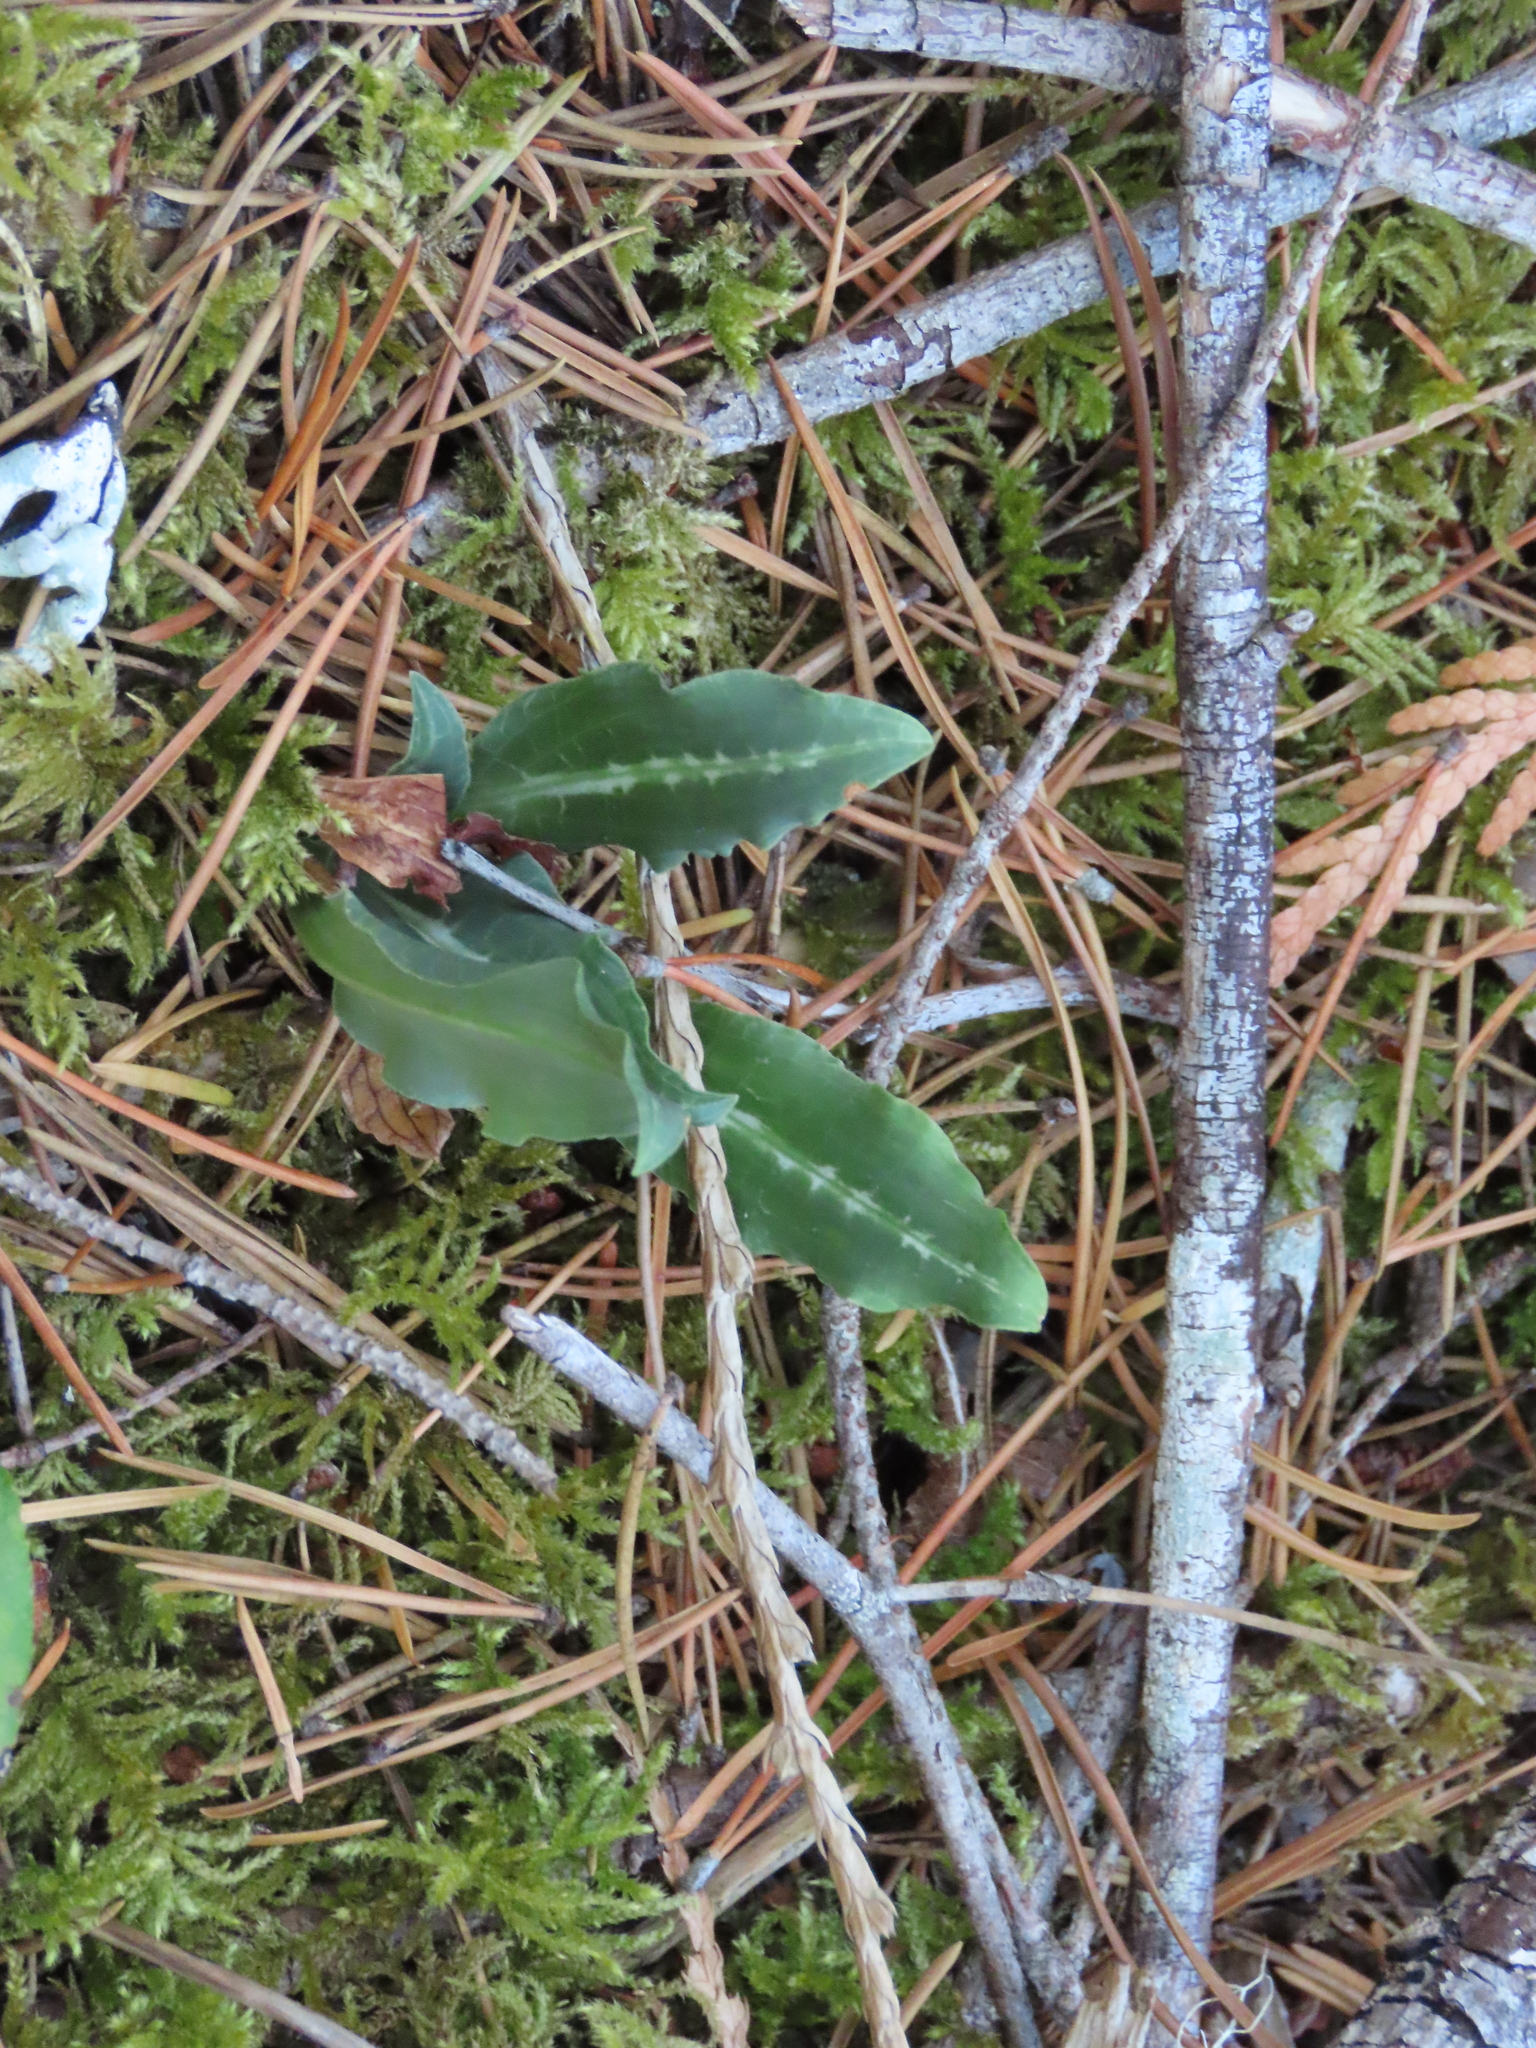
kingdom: Plantae
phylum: Tracheophyta
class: Liliopsida
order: Asparagales
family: Orchidaceae
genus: Goodyera
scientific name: Goodyera oblongifolia
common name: Giant rattlesnake-plantain
